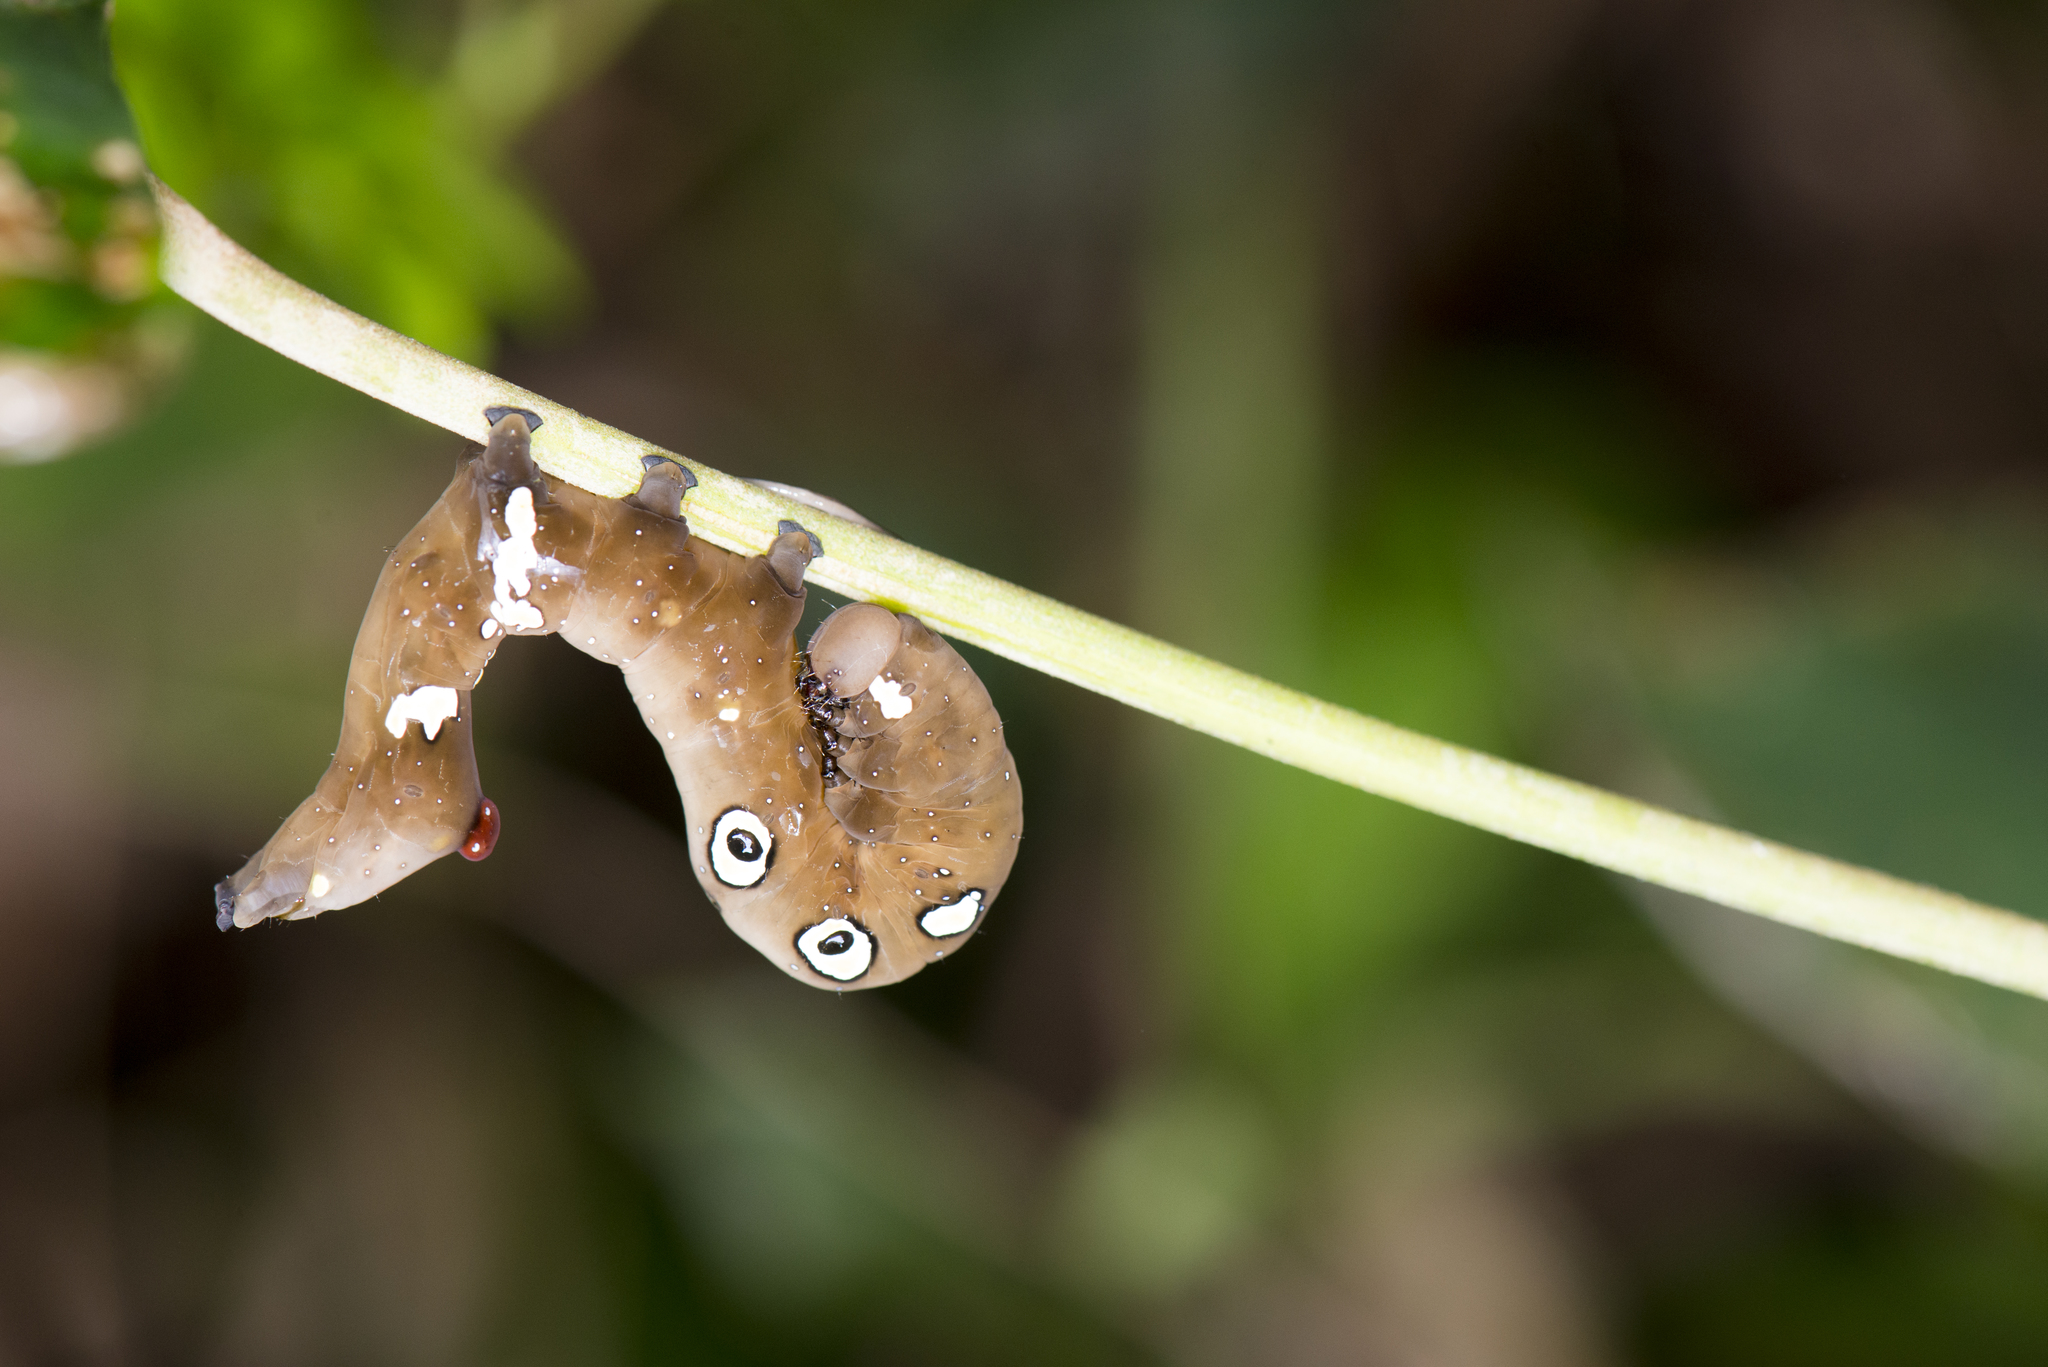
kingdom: Animalia
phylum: Arthropoda
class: Insecta
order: Lepidoptera
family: Erebidae
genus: Eudocima
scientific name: Eudocima homaena
